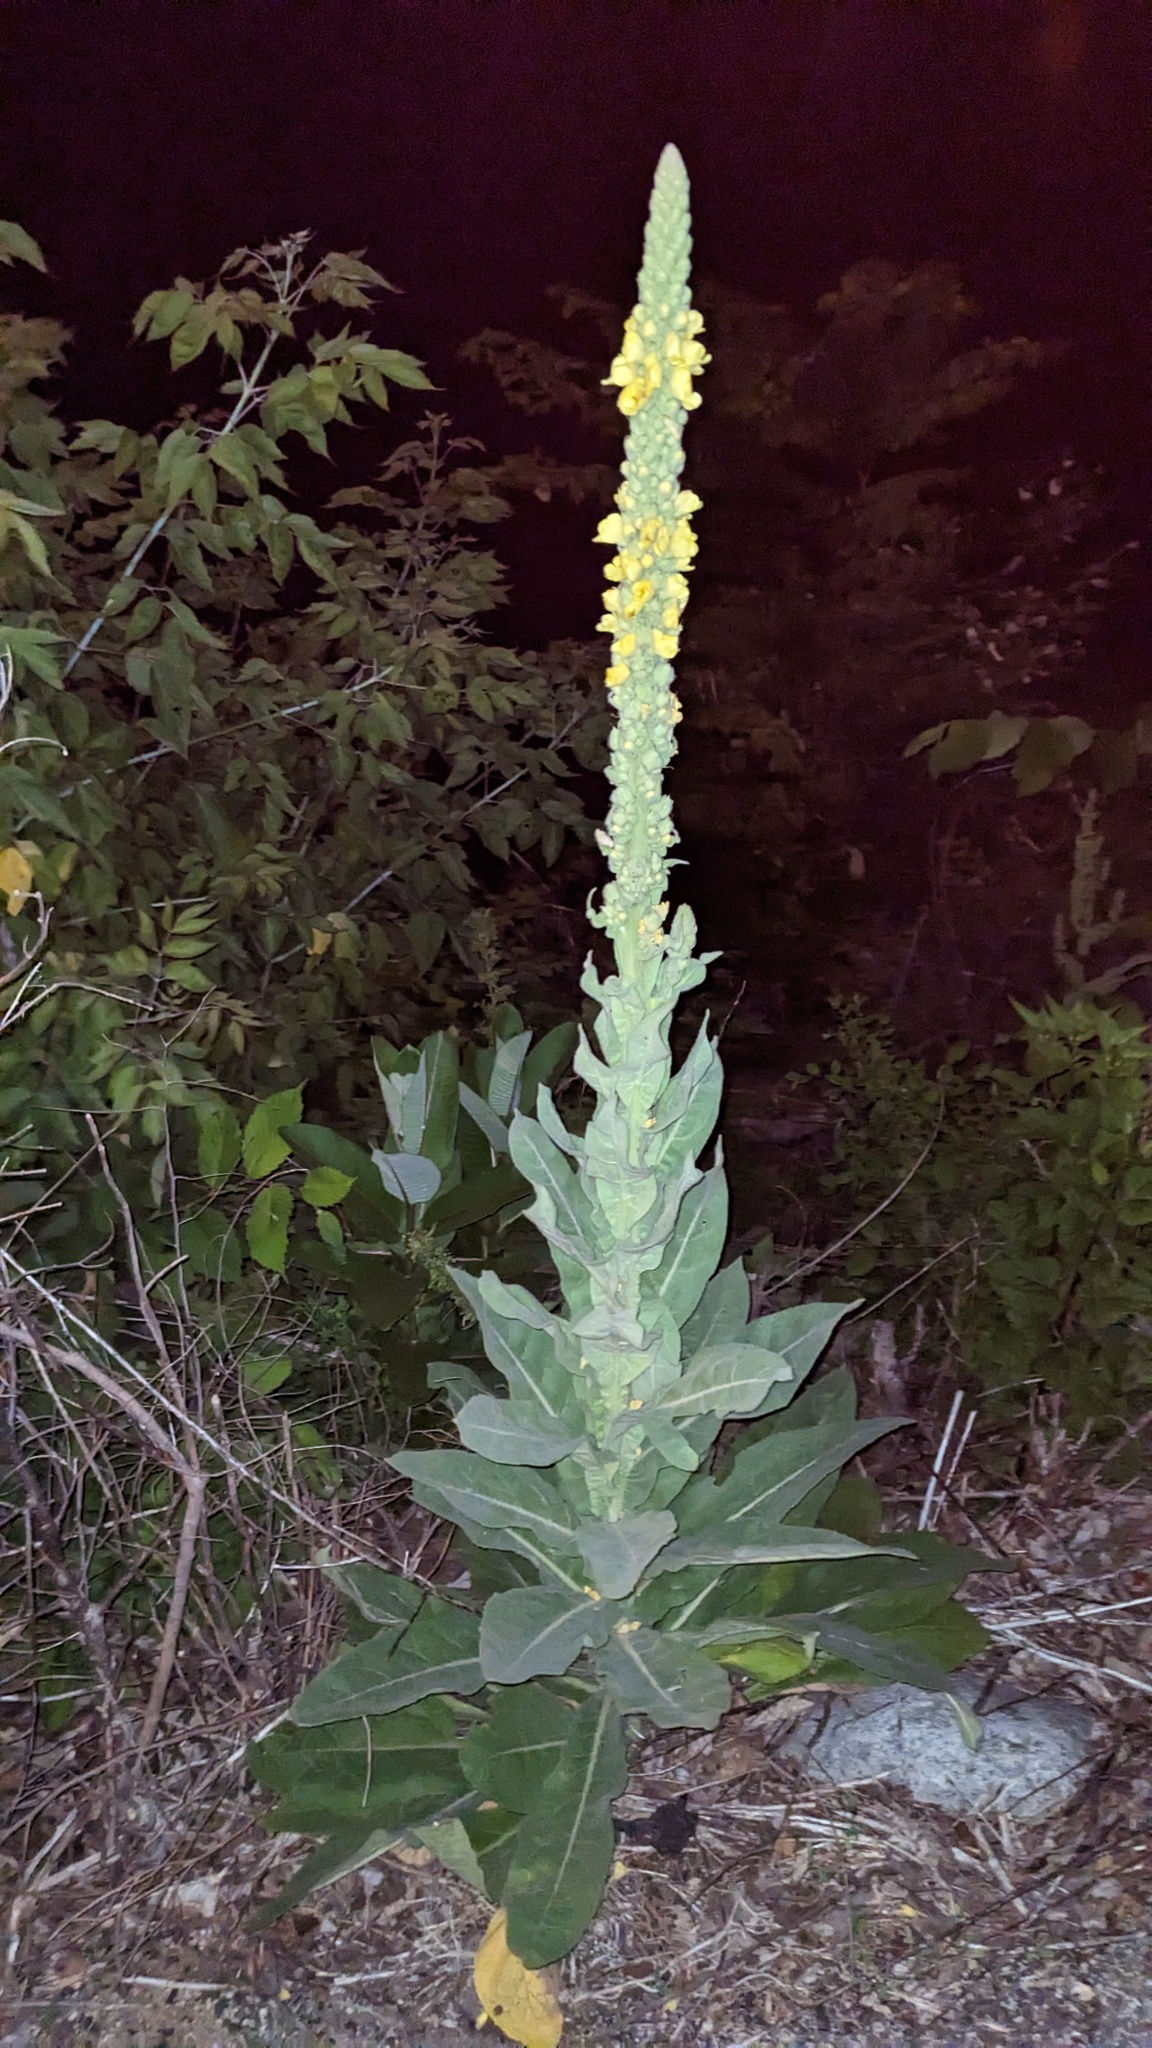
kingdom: Plantae
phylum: Tracheophyta
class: Magnoliopsida
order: Lamiales
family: Scrophulariaceae
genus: Verbascum
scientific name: Verbascum thapsus
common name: Common mullein
